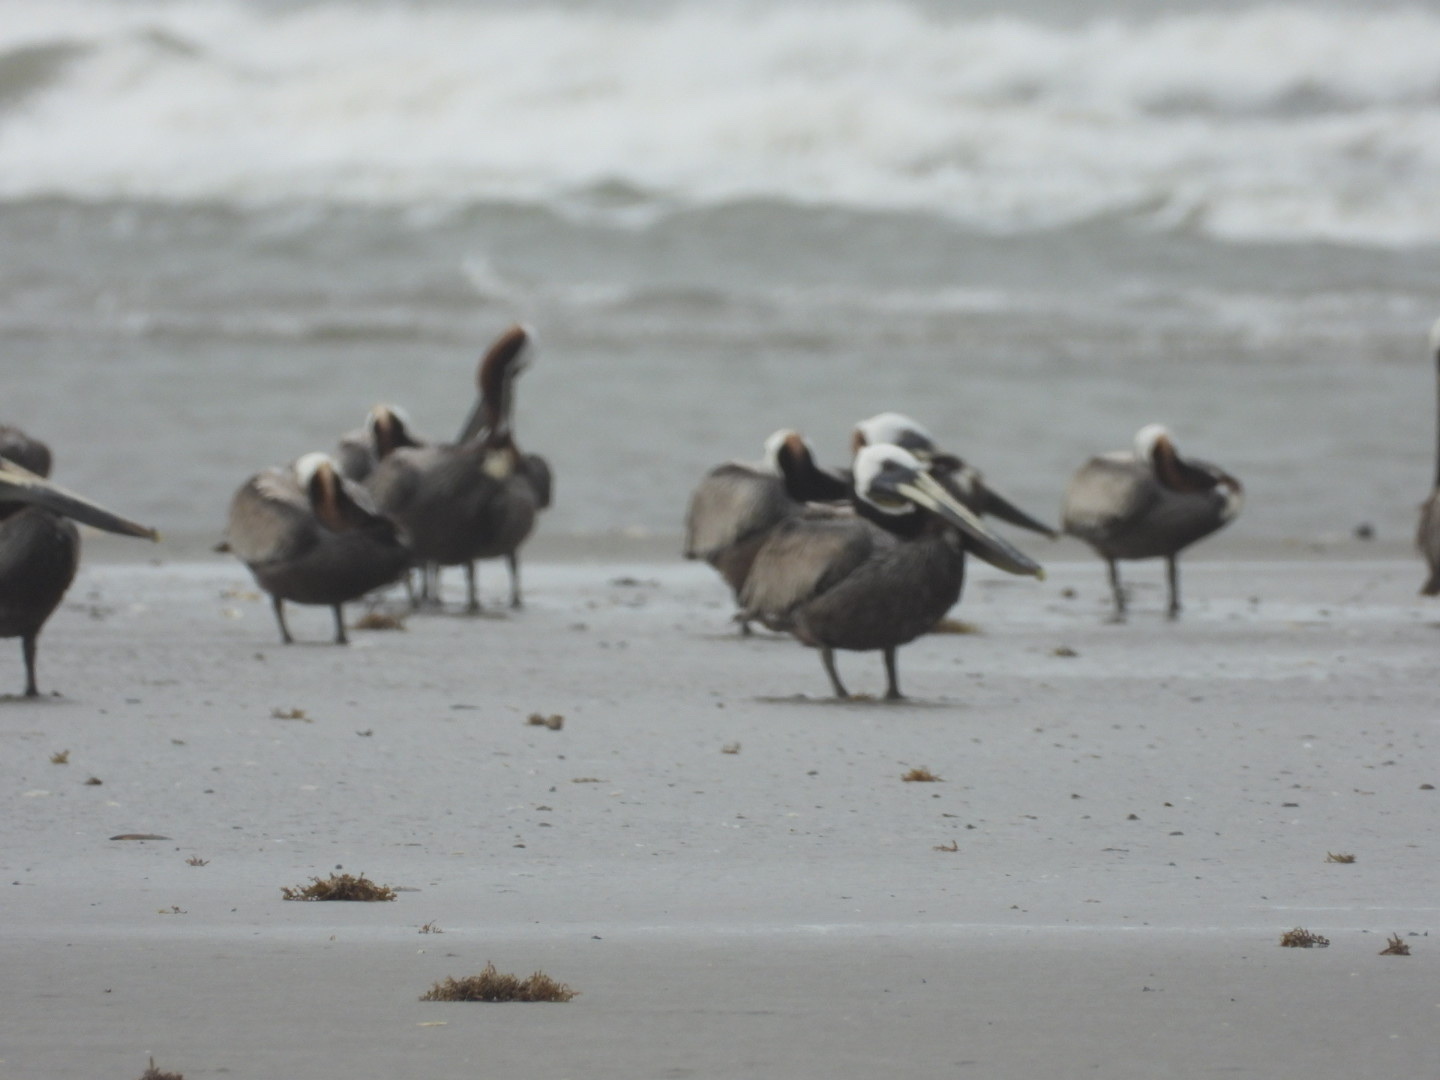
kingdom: Animalia
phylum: Chordata
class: Aves
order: Pelecaniformes
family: Pelecanidae
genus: Pelecanus
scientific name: Pelecanus occidentalis
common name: Brown pelican
